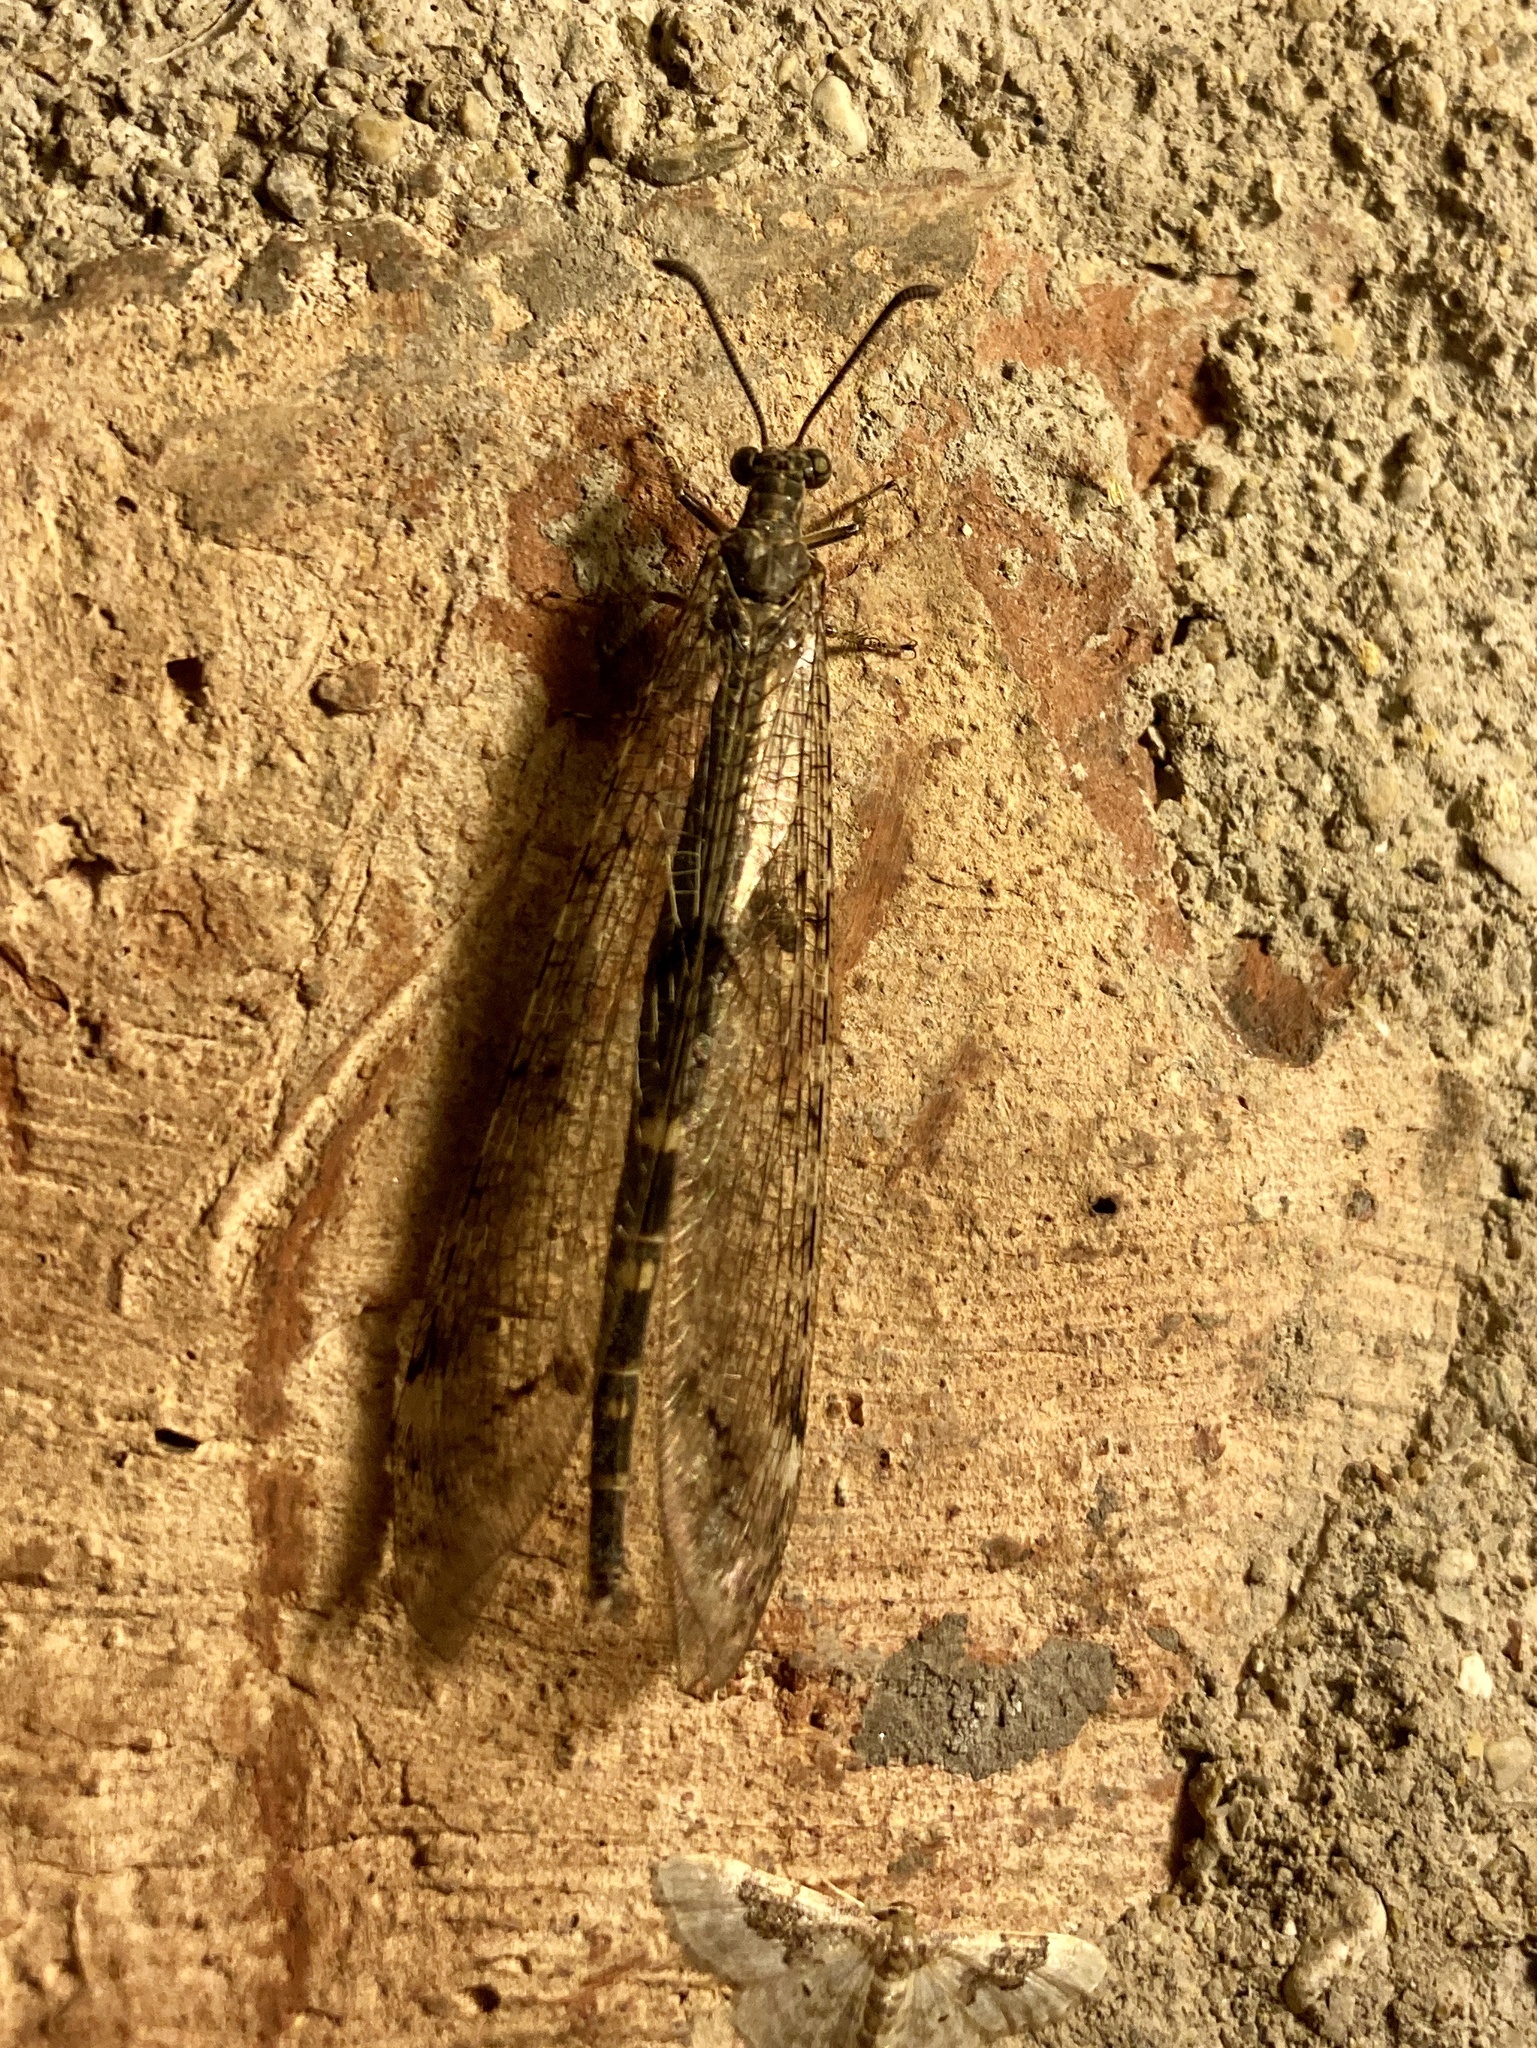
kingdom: Animalia
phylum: Arthropoda
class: Insecta
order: Neuroptera
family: Myrmeleontidae
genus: Distoleon
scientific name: Distoleon tetragrammicus
